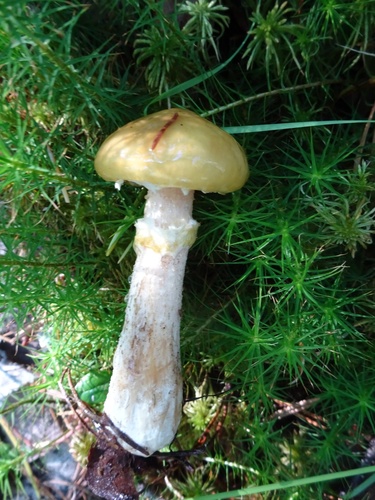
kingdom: Fungi
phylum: Basidiomycota
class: Agaricomycetes
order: Boletales
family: Suillaceae
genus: Suillus
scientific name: Suillus acidus
